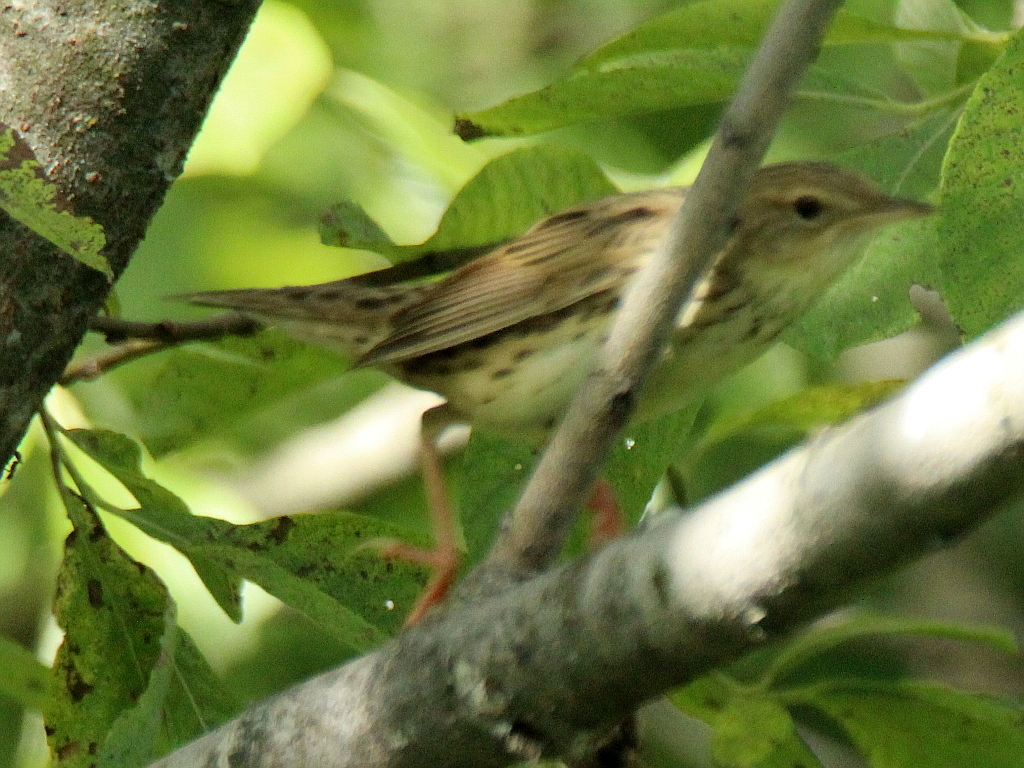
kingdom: Animalia
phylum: Chordata
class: Aves
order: Passeriformes
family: Locustellidae
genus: Locustella
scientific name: Locustella lanceolata
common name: Lanceolated warbler
